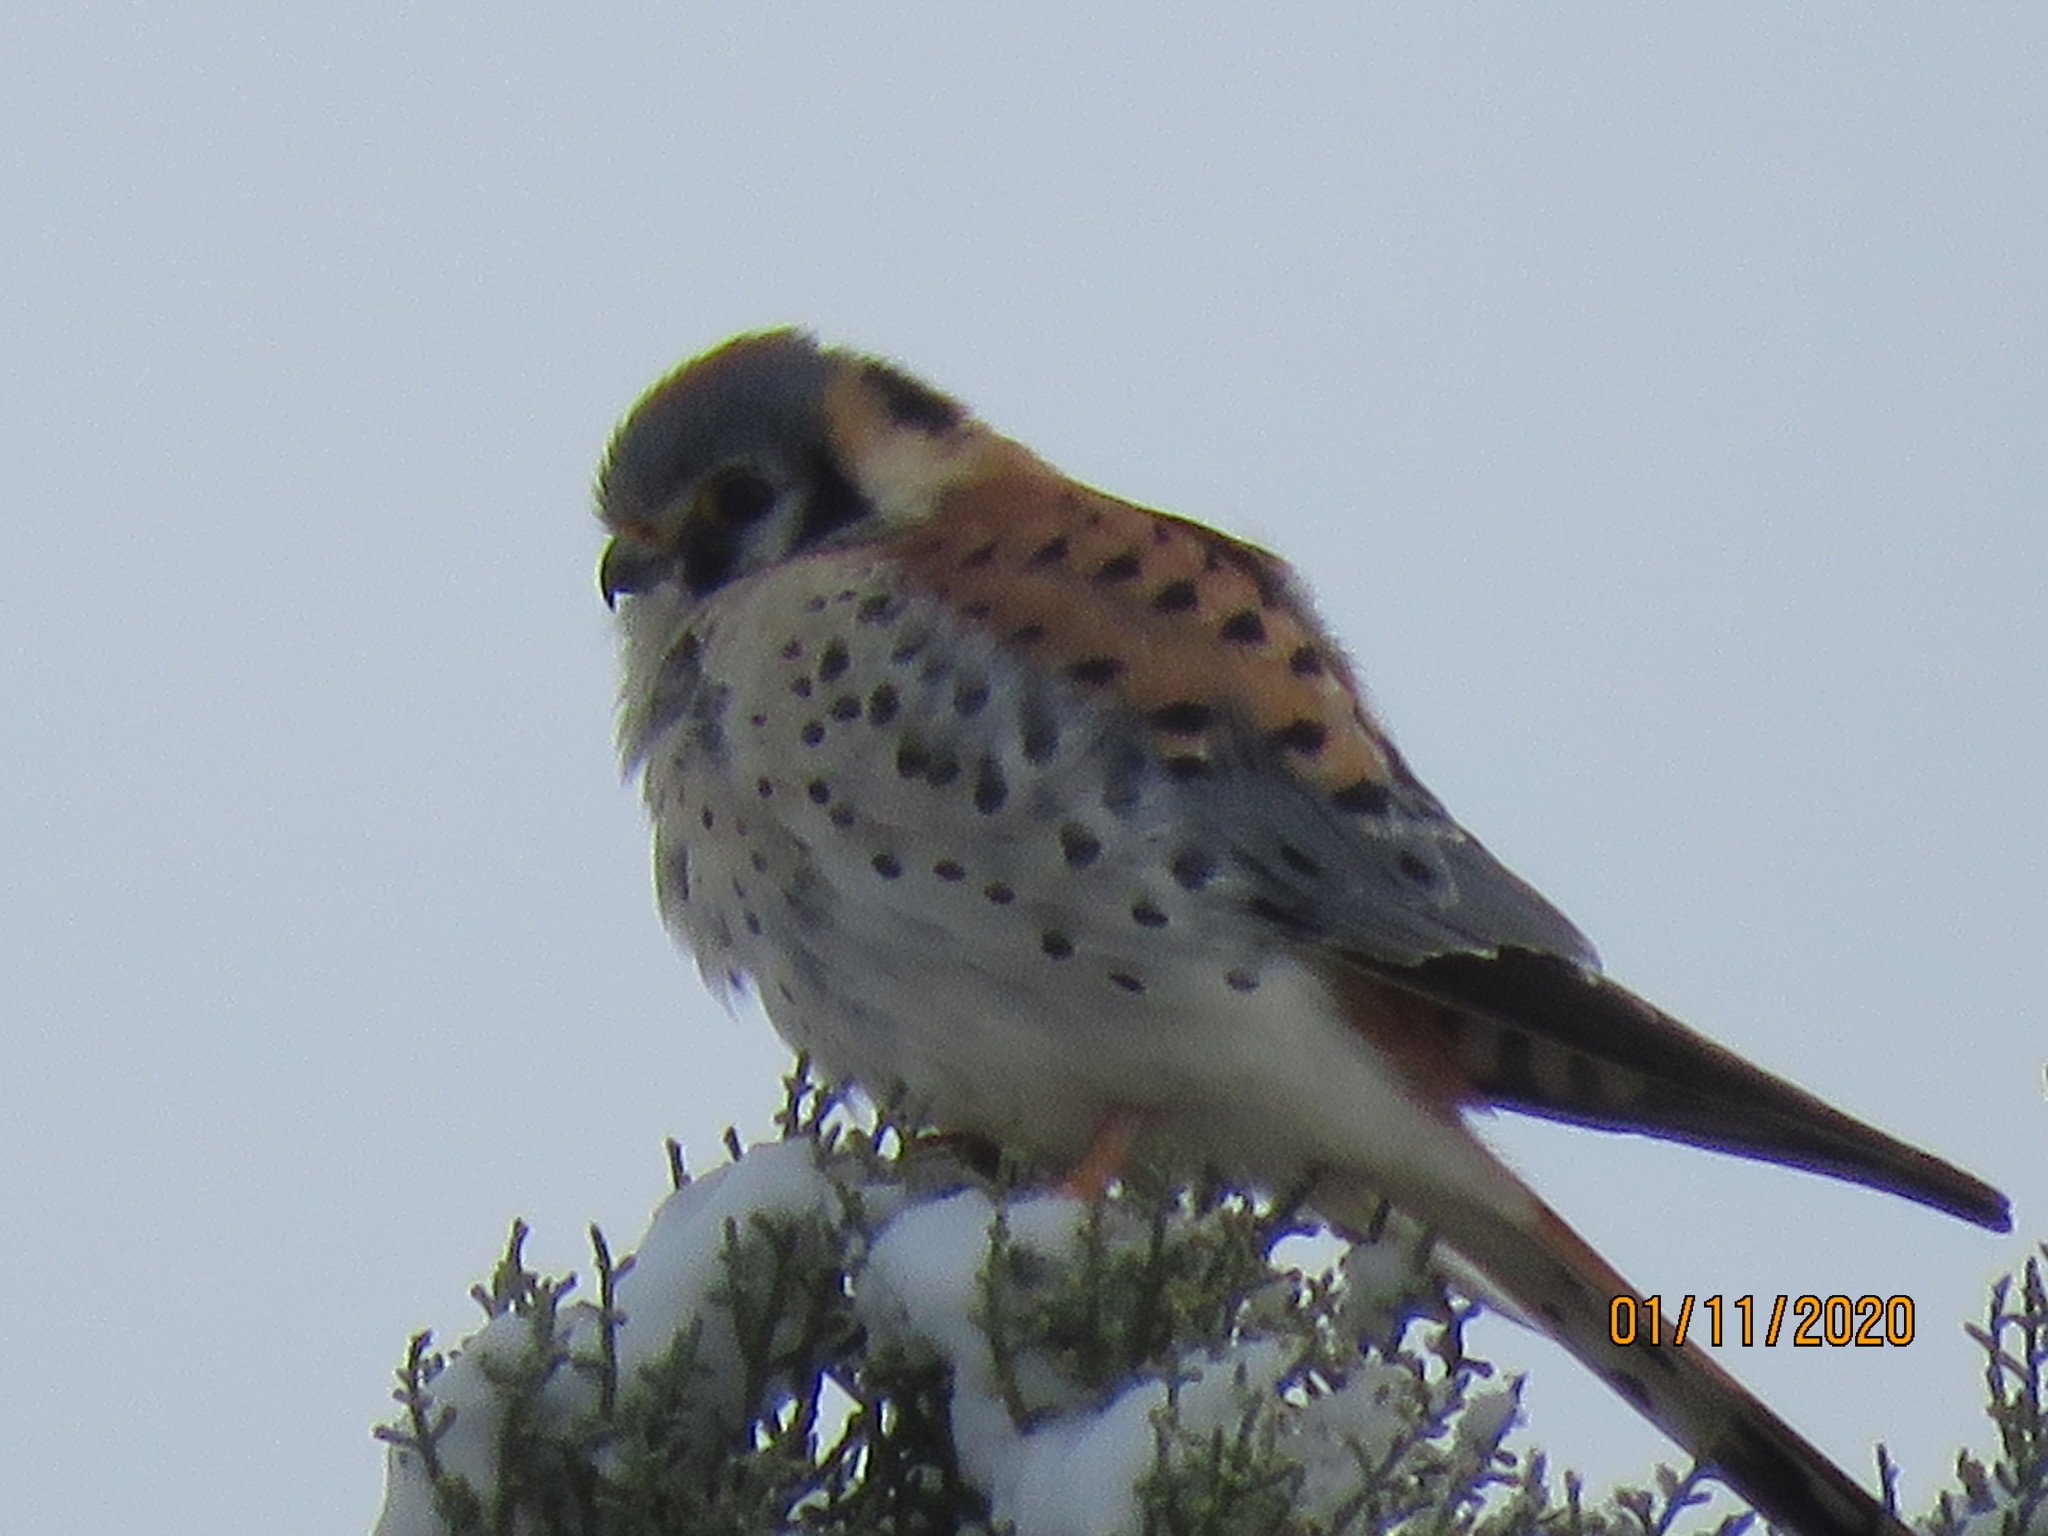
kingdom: Animalia
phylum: Chordata
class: Aves
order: Falconiformes
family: Falconidae
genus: Falco
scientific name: Falco sparverius
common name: American kestrel
